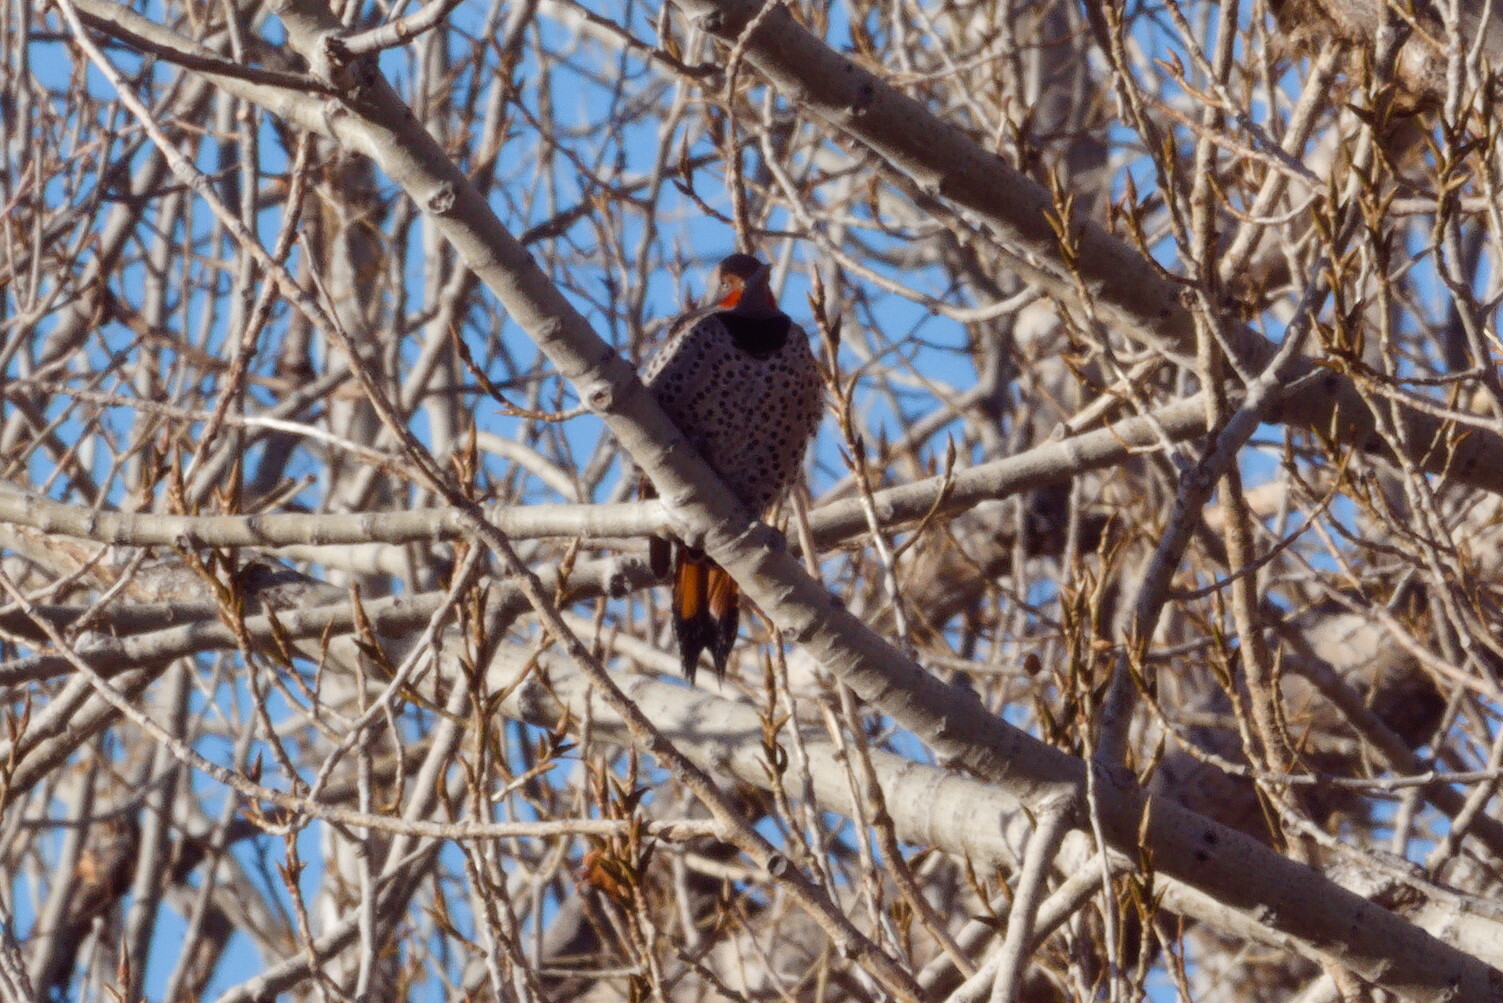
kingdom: Animalia
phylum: Chordata
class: Aves
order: Piciformes
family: Picidae
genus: Colaptes
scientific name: Colaptes auratus
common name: Northern flicker
